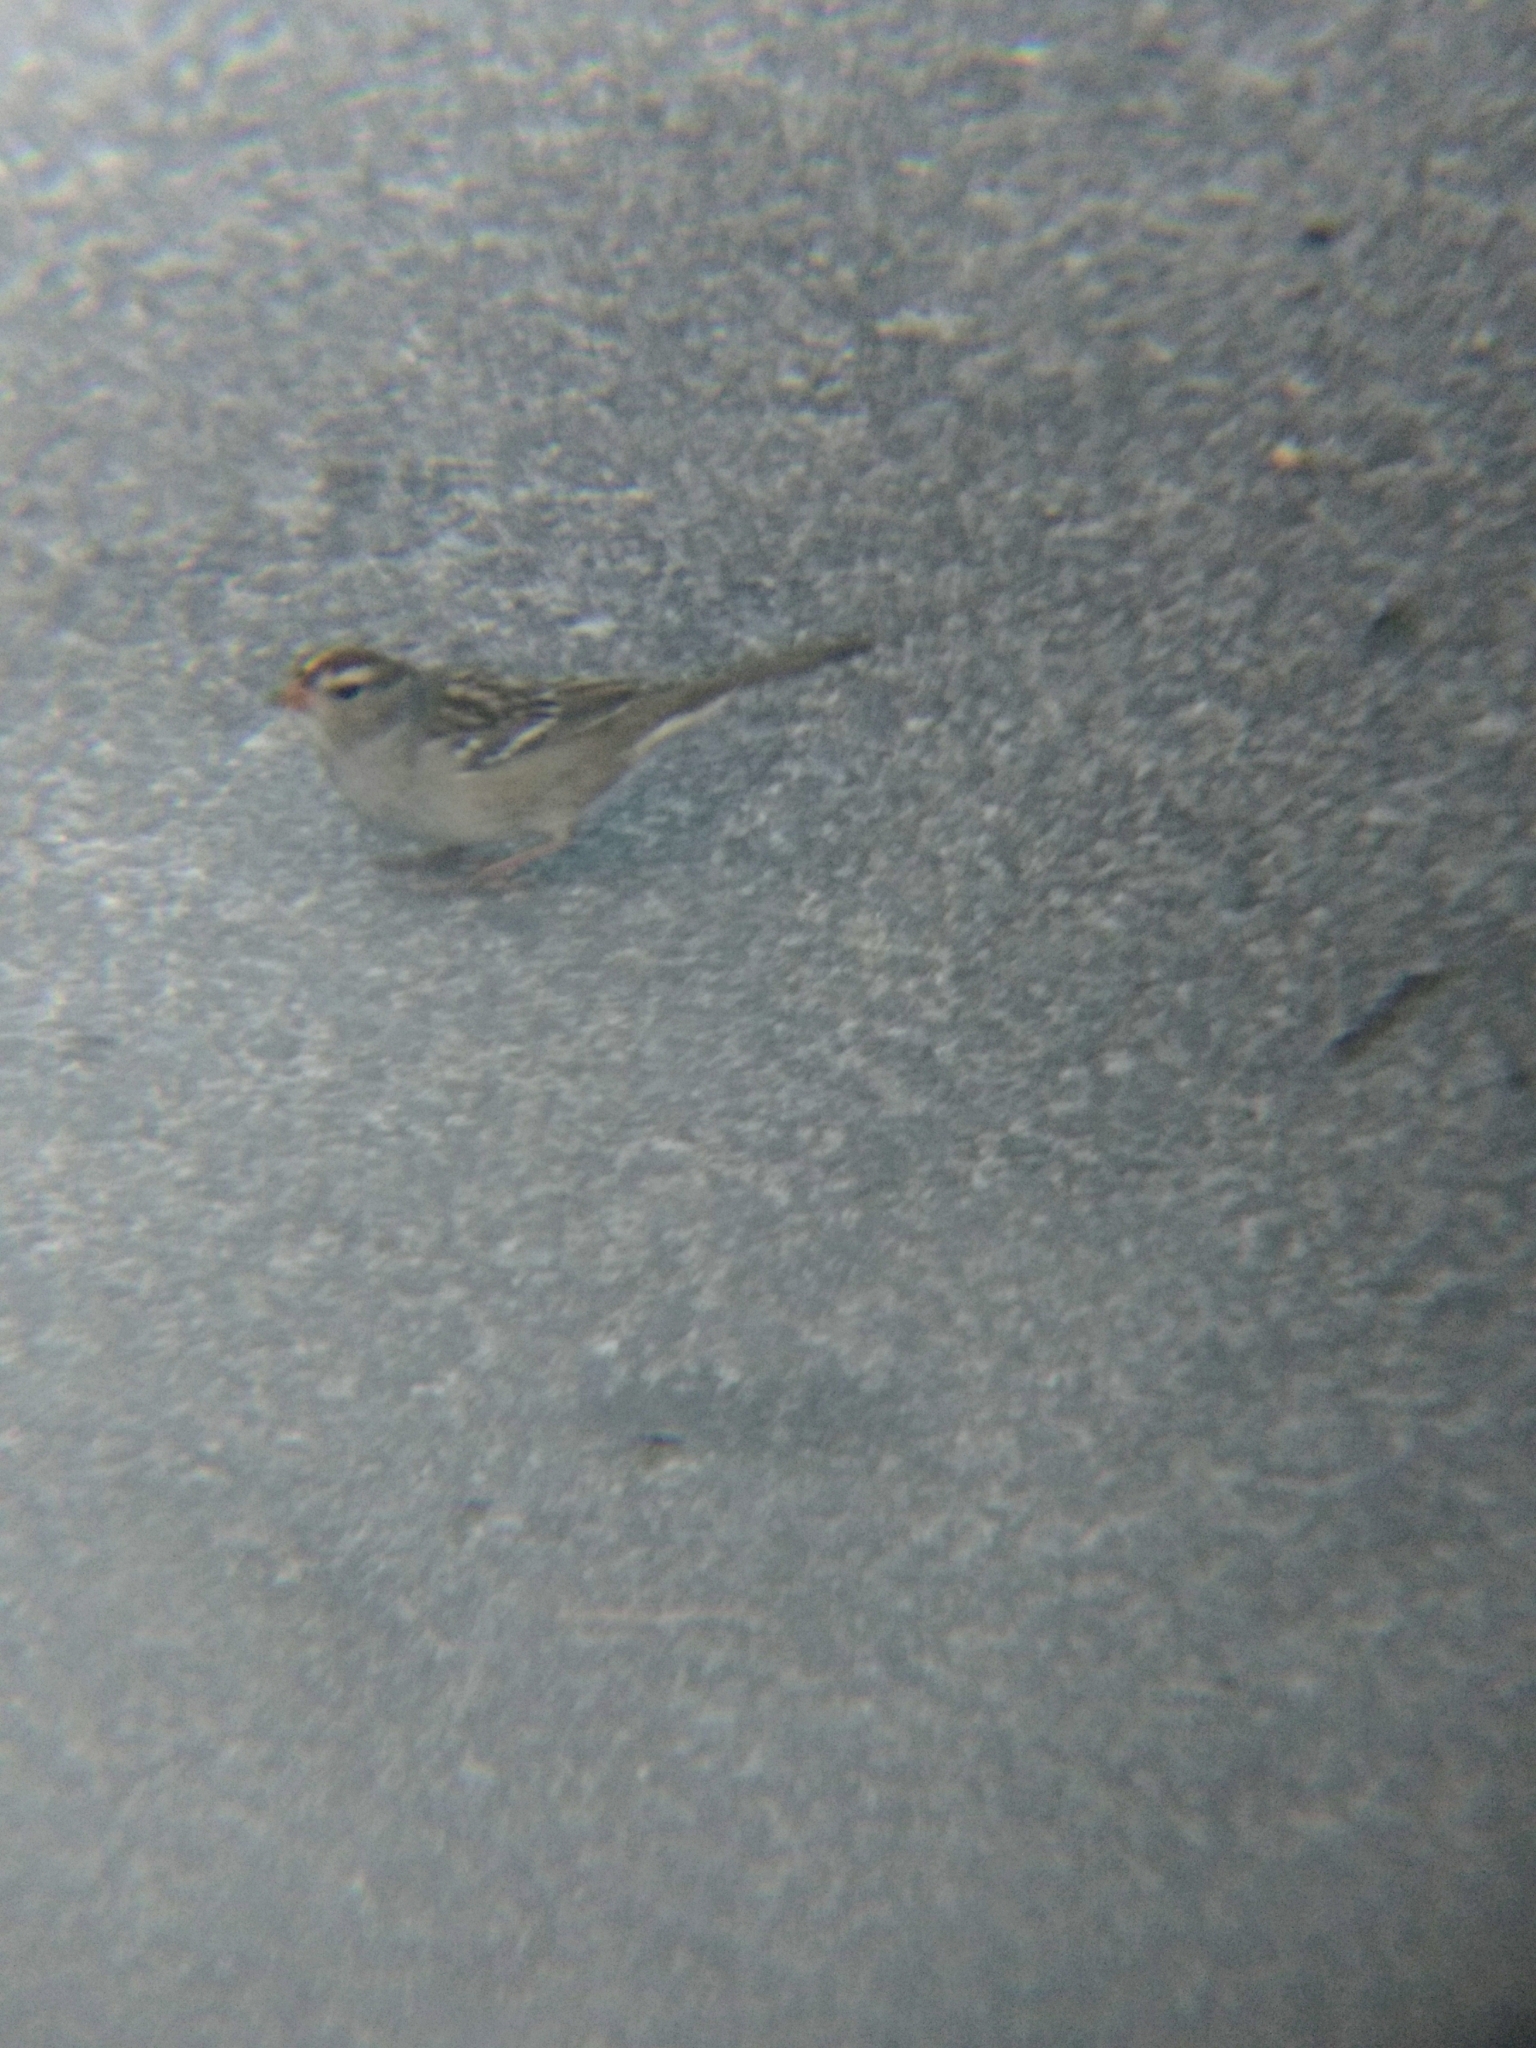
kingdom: Animalia
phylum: Chordata
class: Aves
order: Passeriformes
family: Passerellidae
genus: Zonotrichia
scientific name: Zonotrichia leucophrys
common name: White-crowned sparrow
